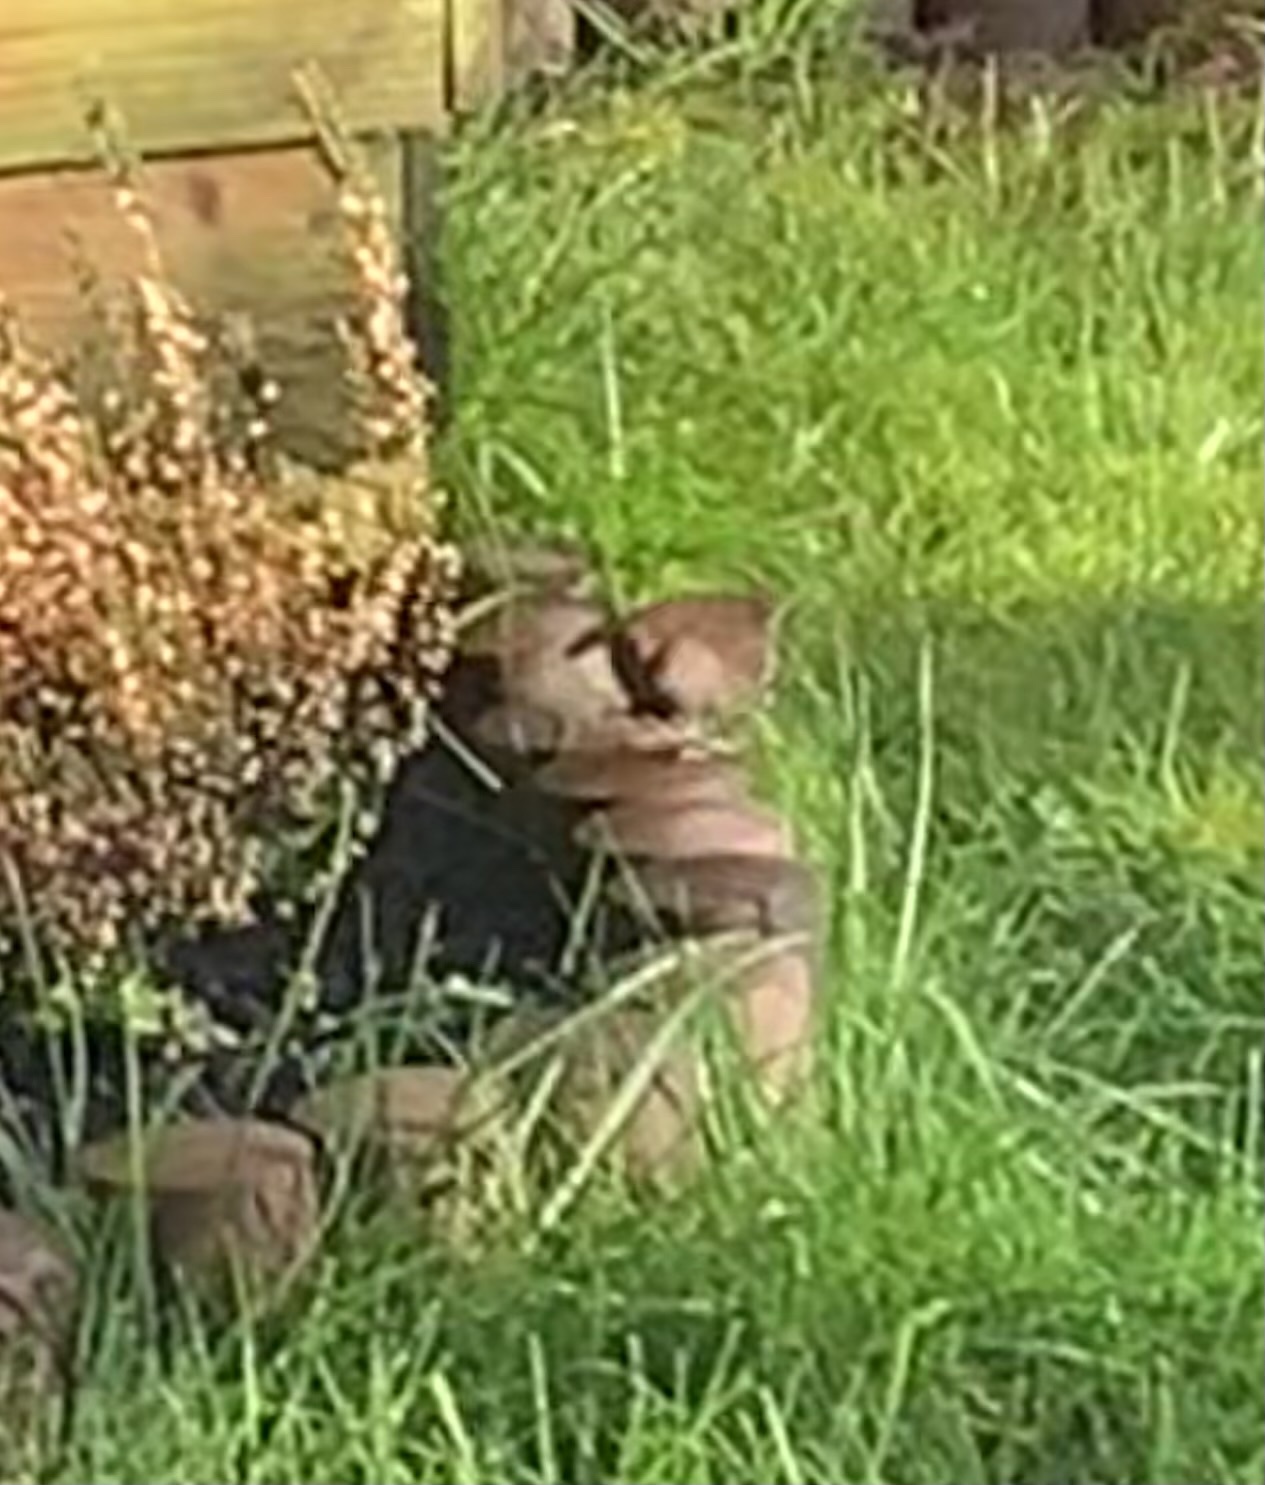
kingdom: Animalia
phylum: Chordata
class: Aves
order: Passeriformes
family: Troglodytidae
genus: Troglodytes
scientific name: Troglodytes troglodytes
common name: Eurasian wren
